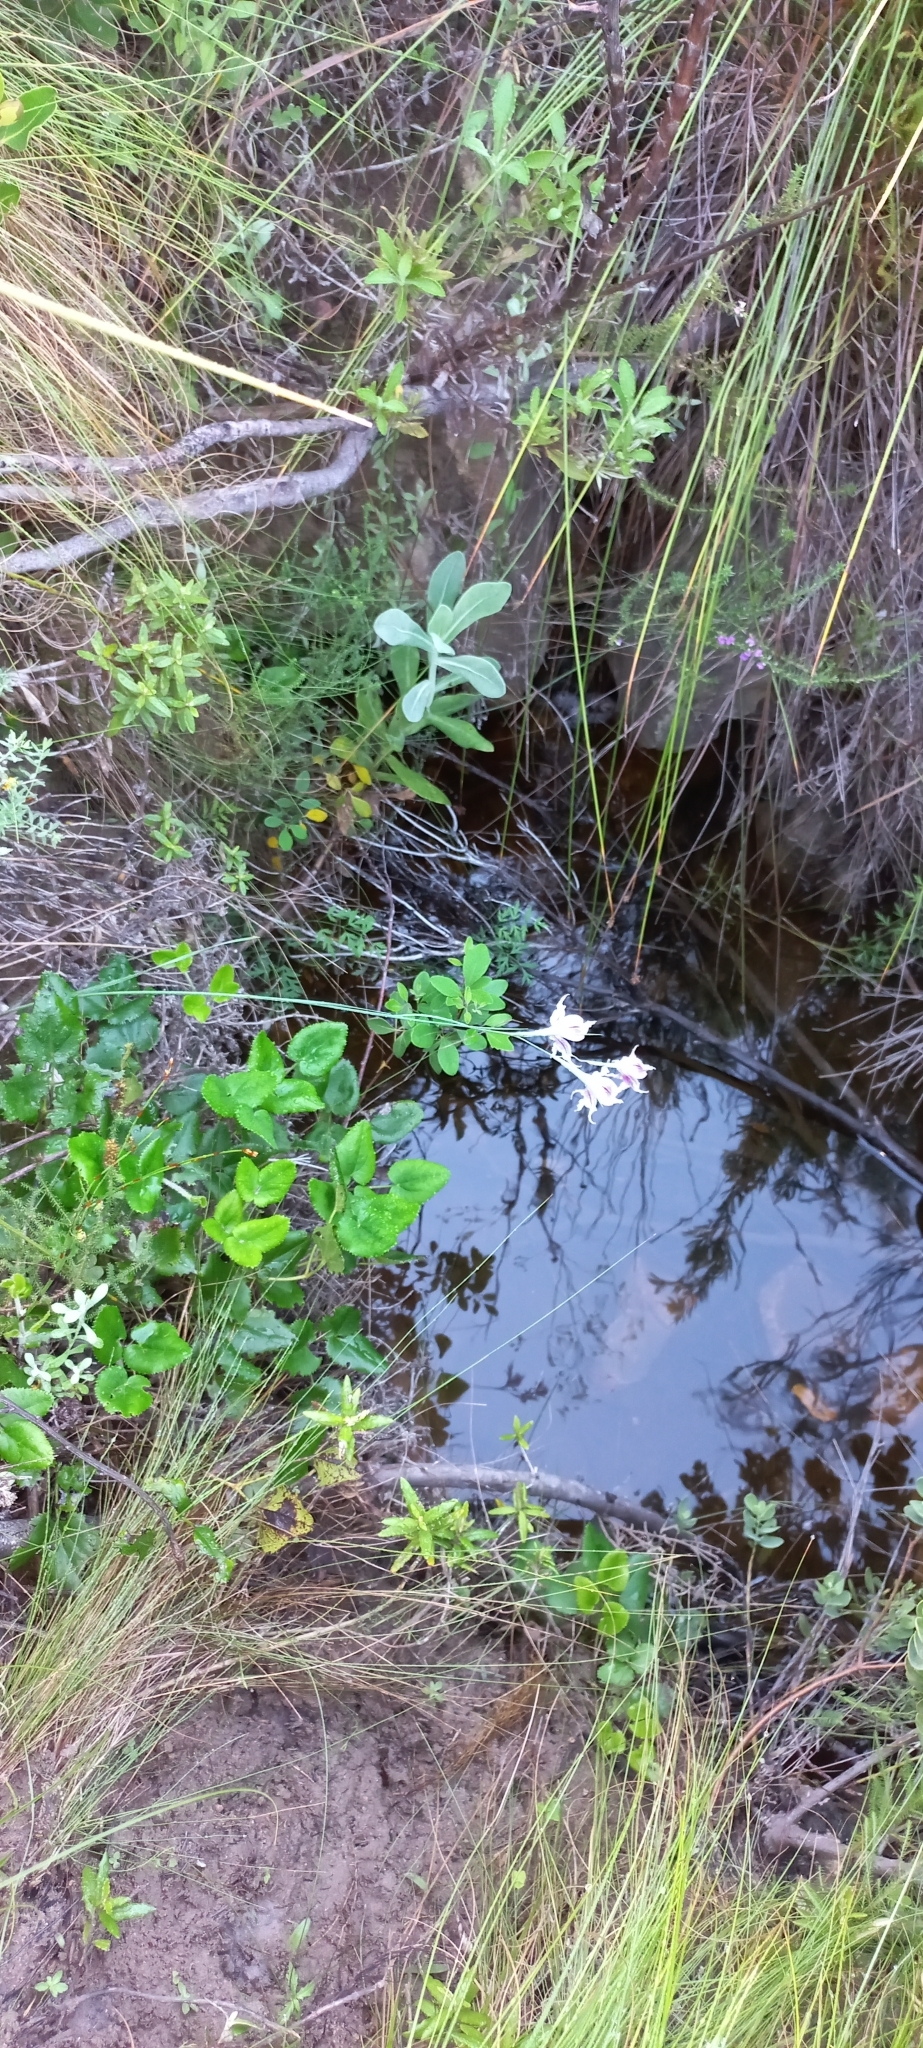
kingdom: Plantae
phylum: Tracheophyta
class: Liliopsida
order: Asparagales
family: Iridaceae
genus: Gladiolus
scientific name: Gladiolus maculatus
